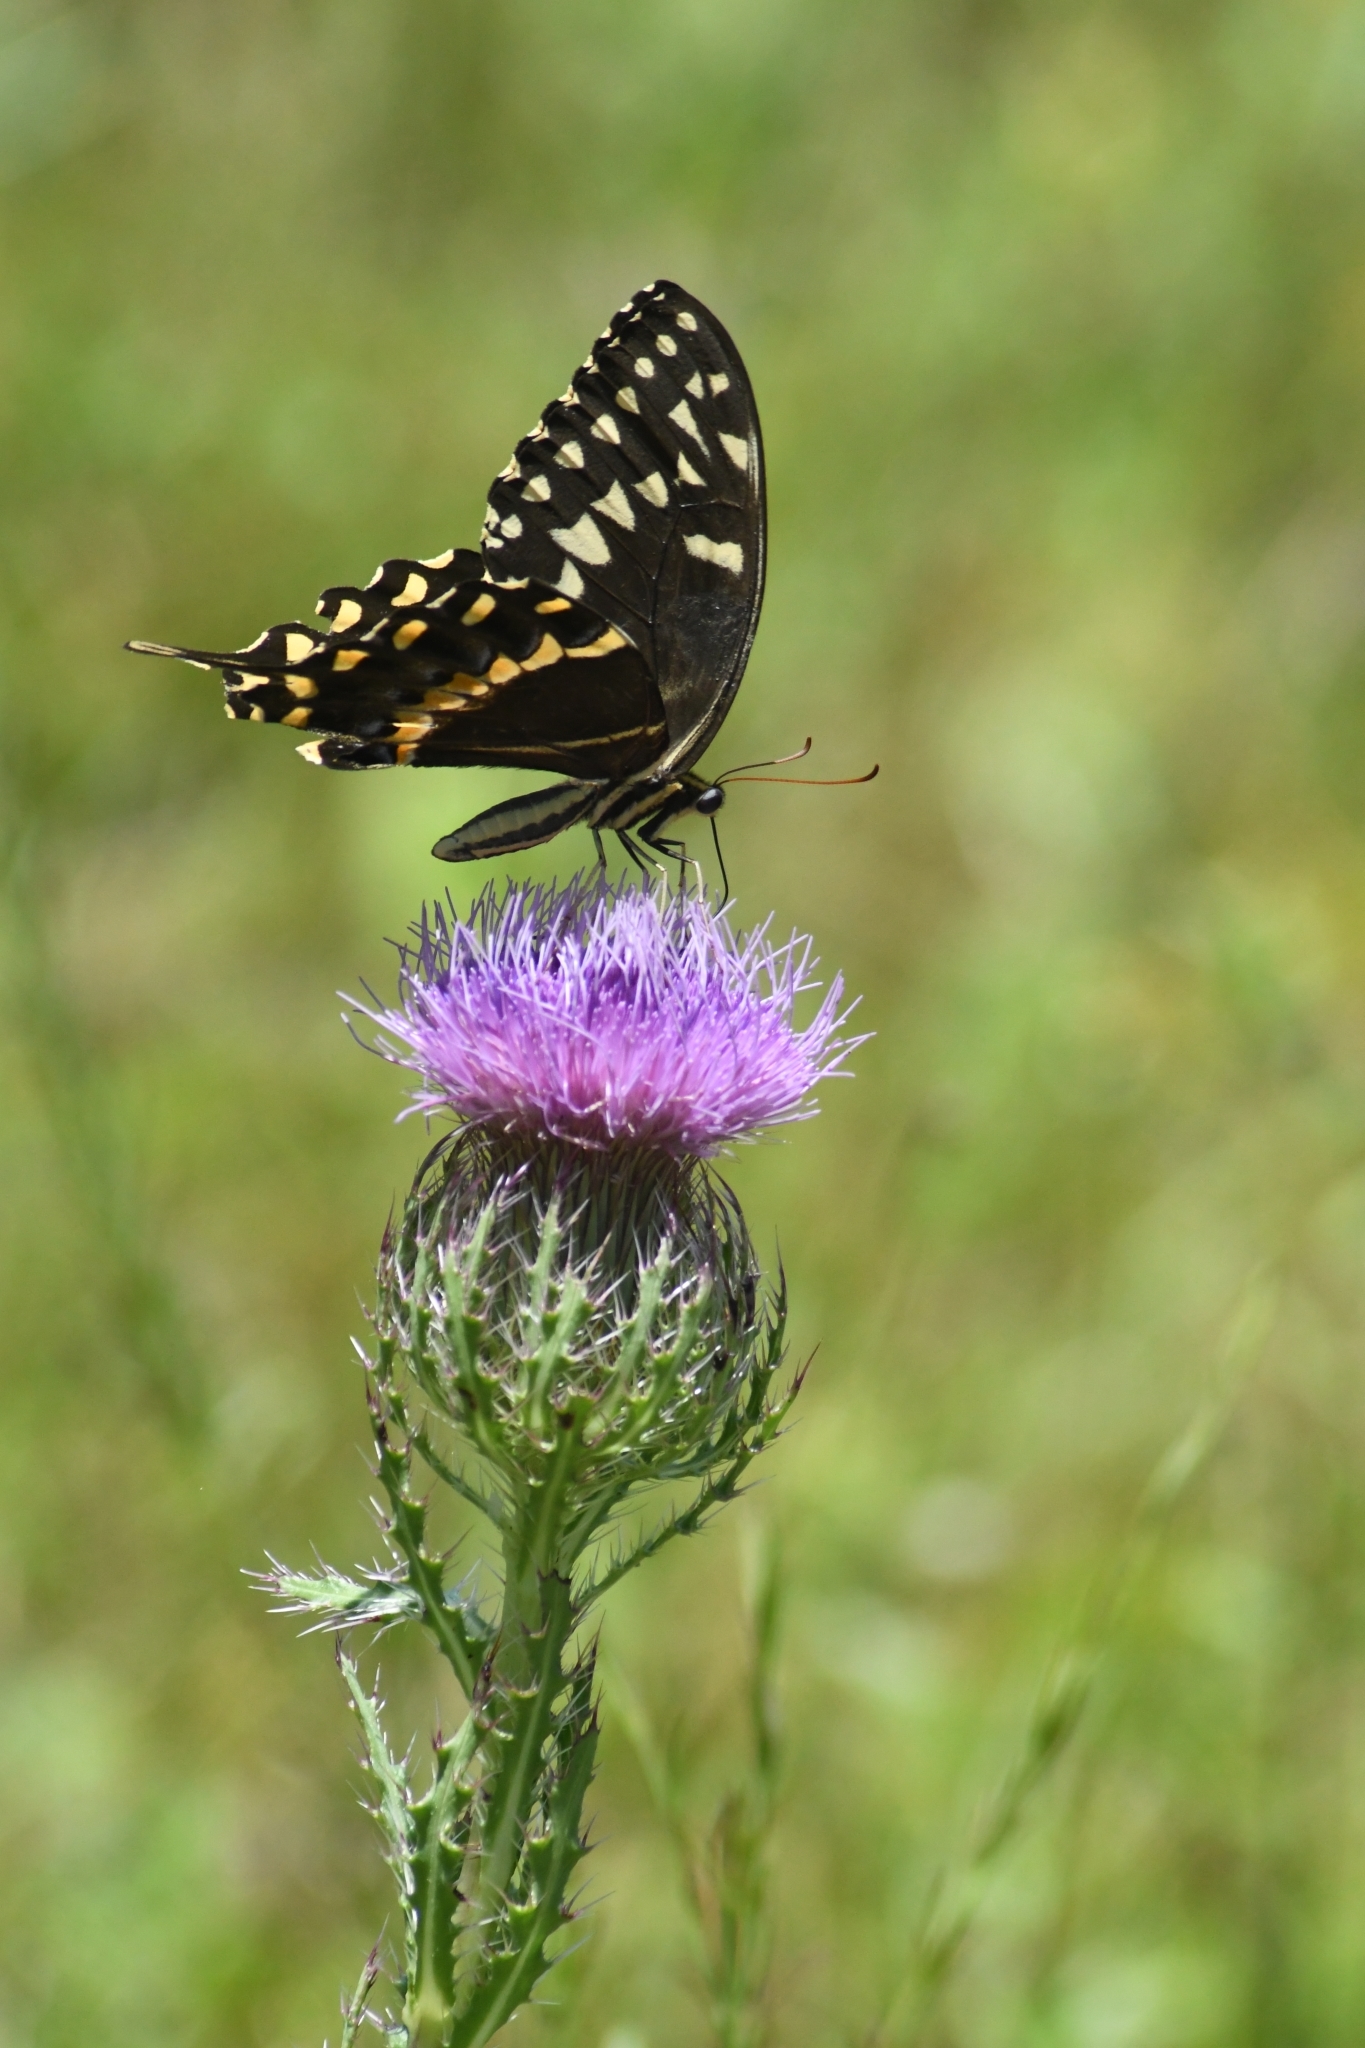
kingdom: Animalia
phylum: Arthropoda
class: Insecta
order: Lepidoptera
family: Papilionidae
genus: Papilio
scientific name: Papilio palamedes
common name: Palamedes swallowtail
